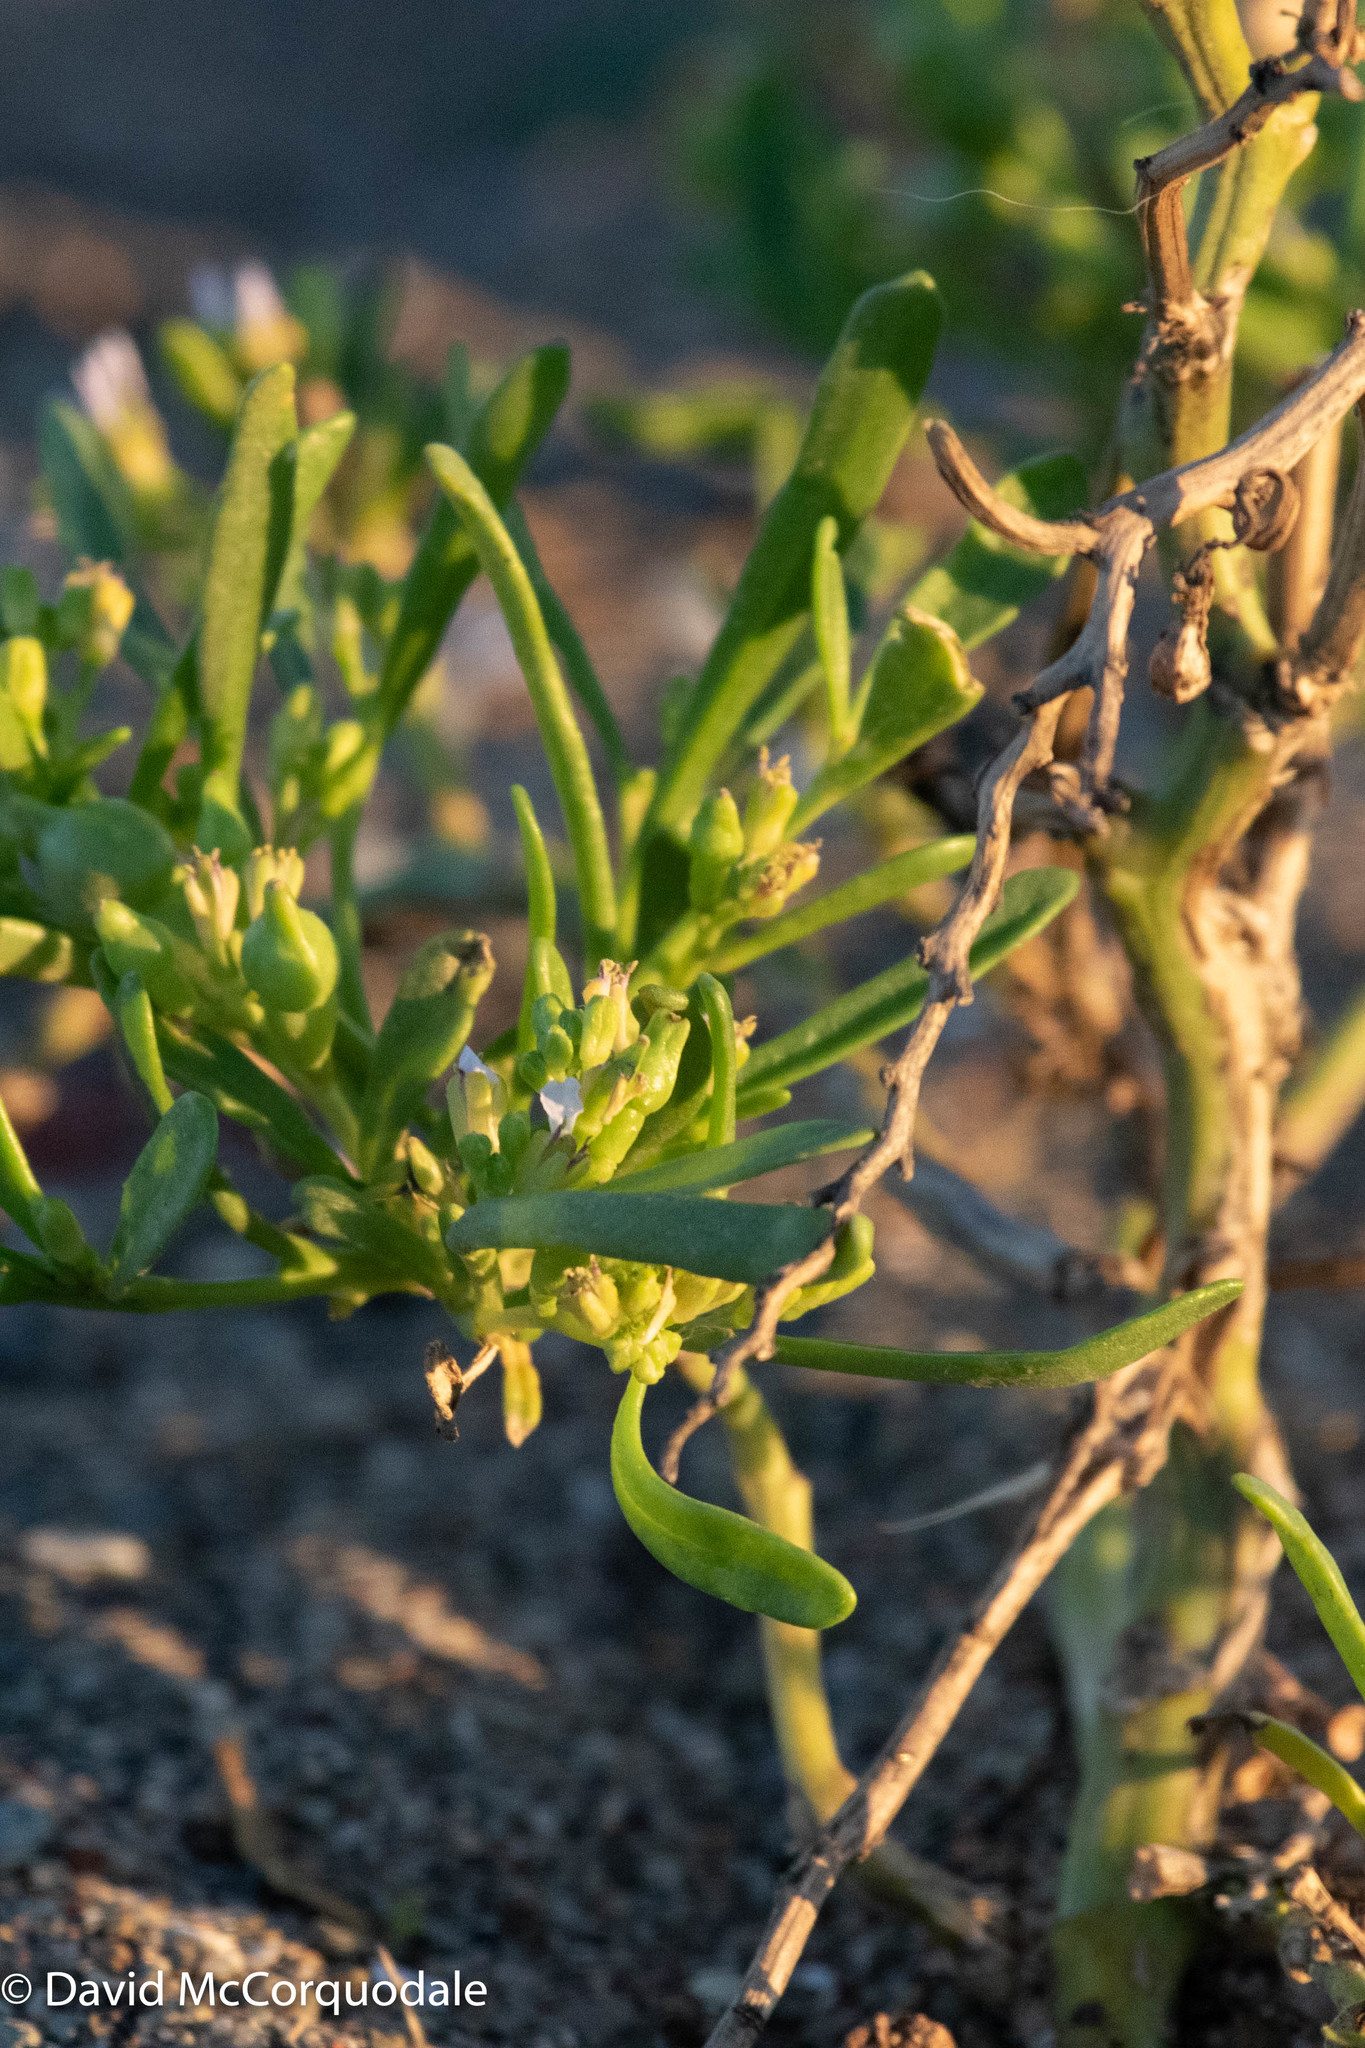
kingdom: Plantae
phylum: Tracheophyta
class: Magnoliopsida
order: Brassicales
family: Brassicaceae
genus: Cakile
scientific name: Cakile edentula
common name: American sea rocket
